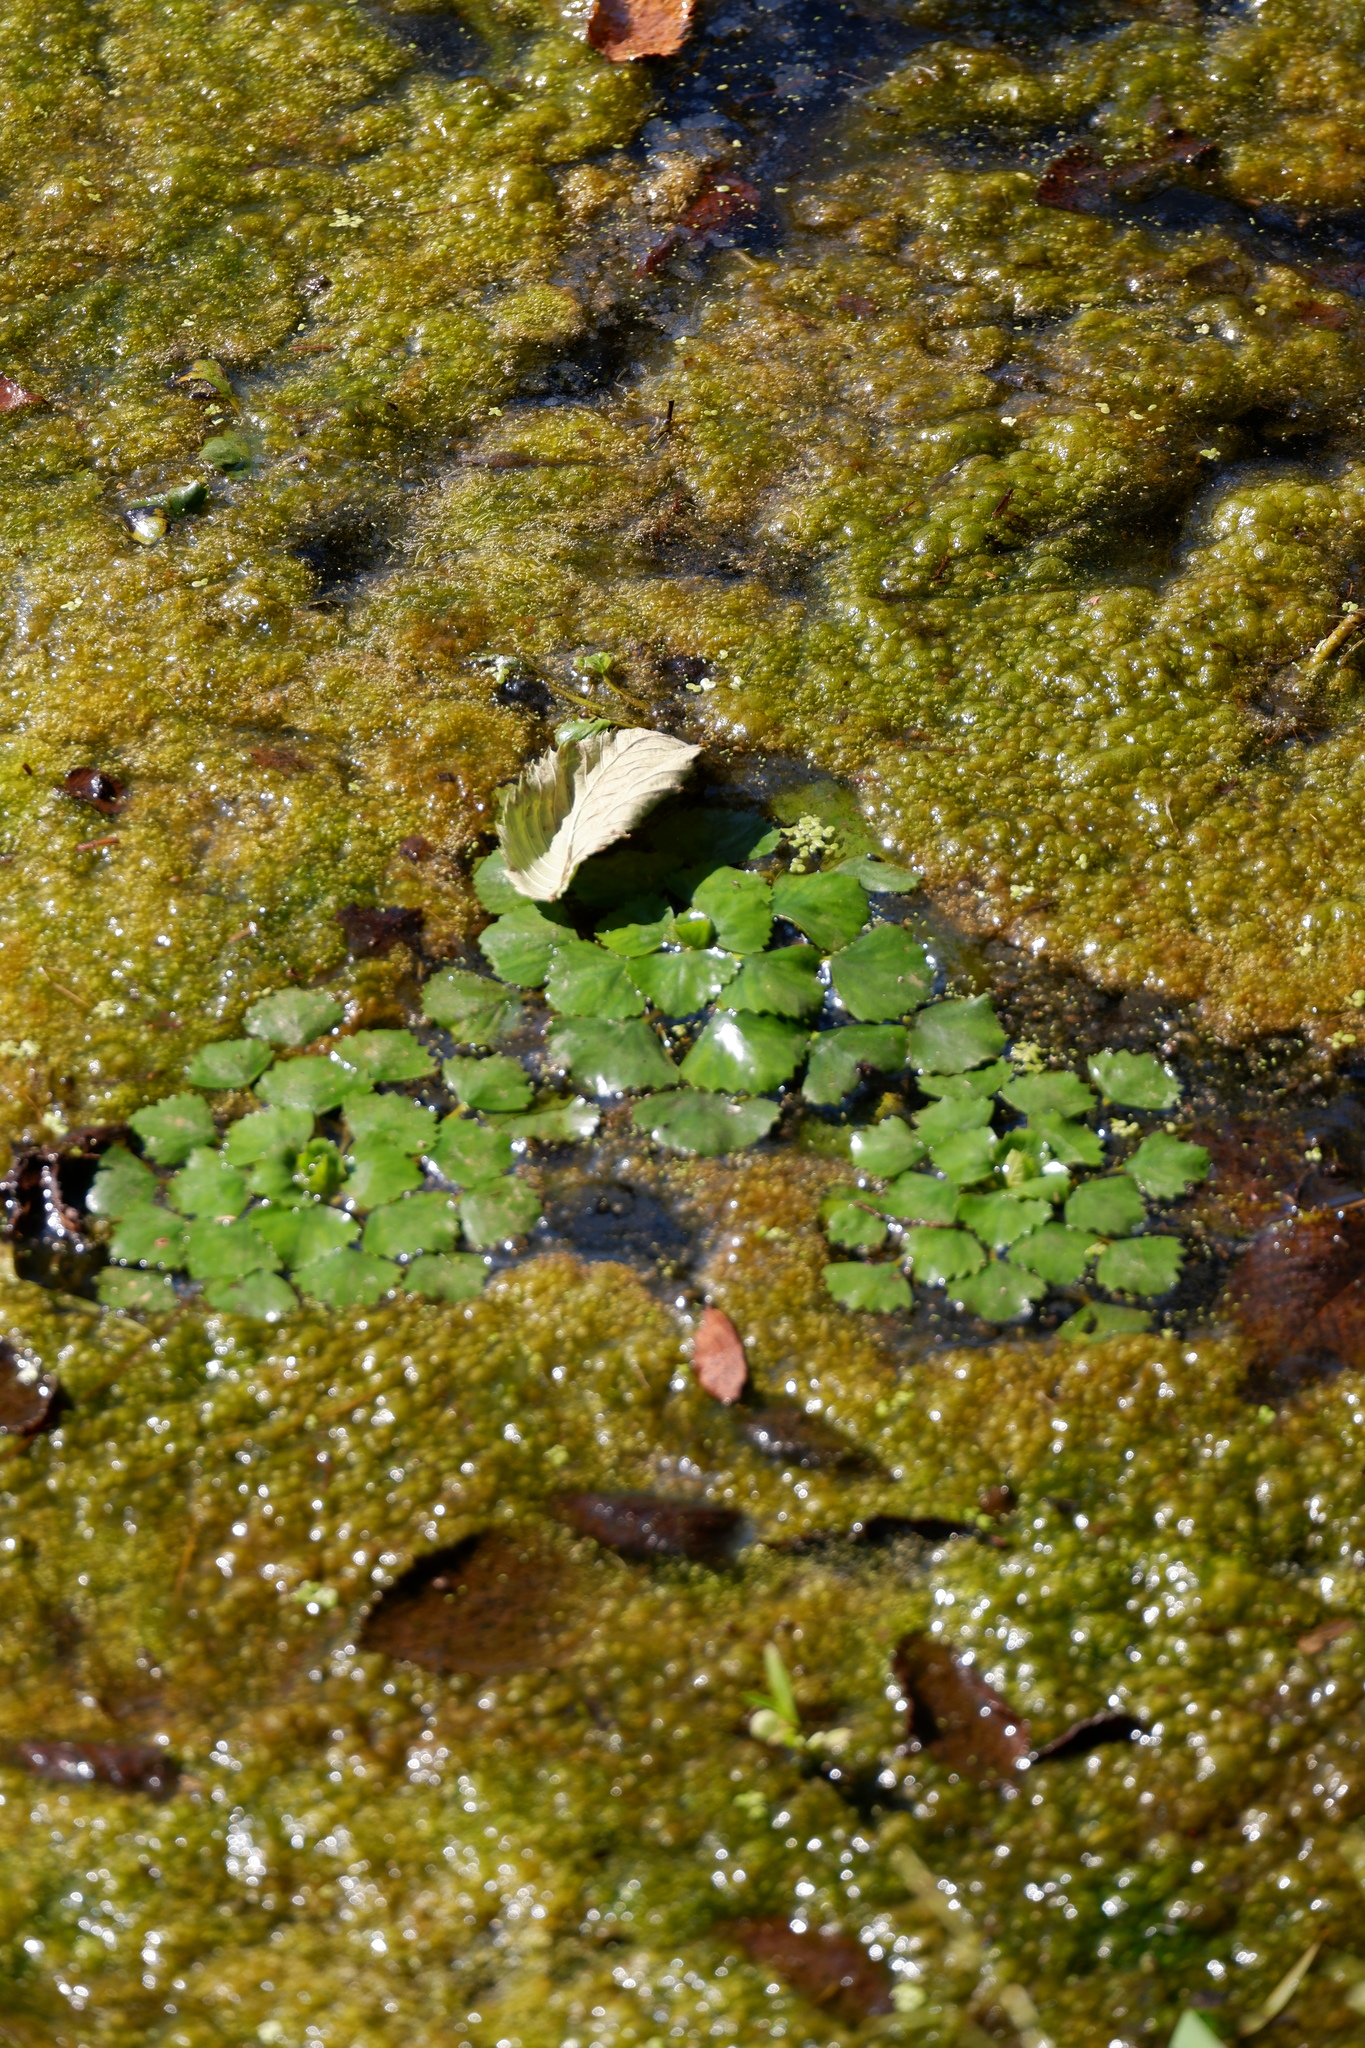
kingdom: Plantae
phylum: Tracheophyta
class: Magnoliopsida
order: Myrtales
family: Lythraceae
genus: Trapa
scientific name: Trapa natans
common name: Water chestnut
